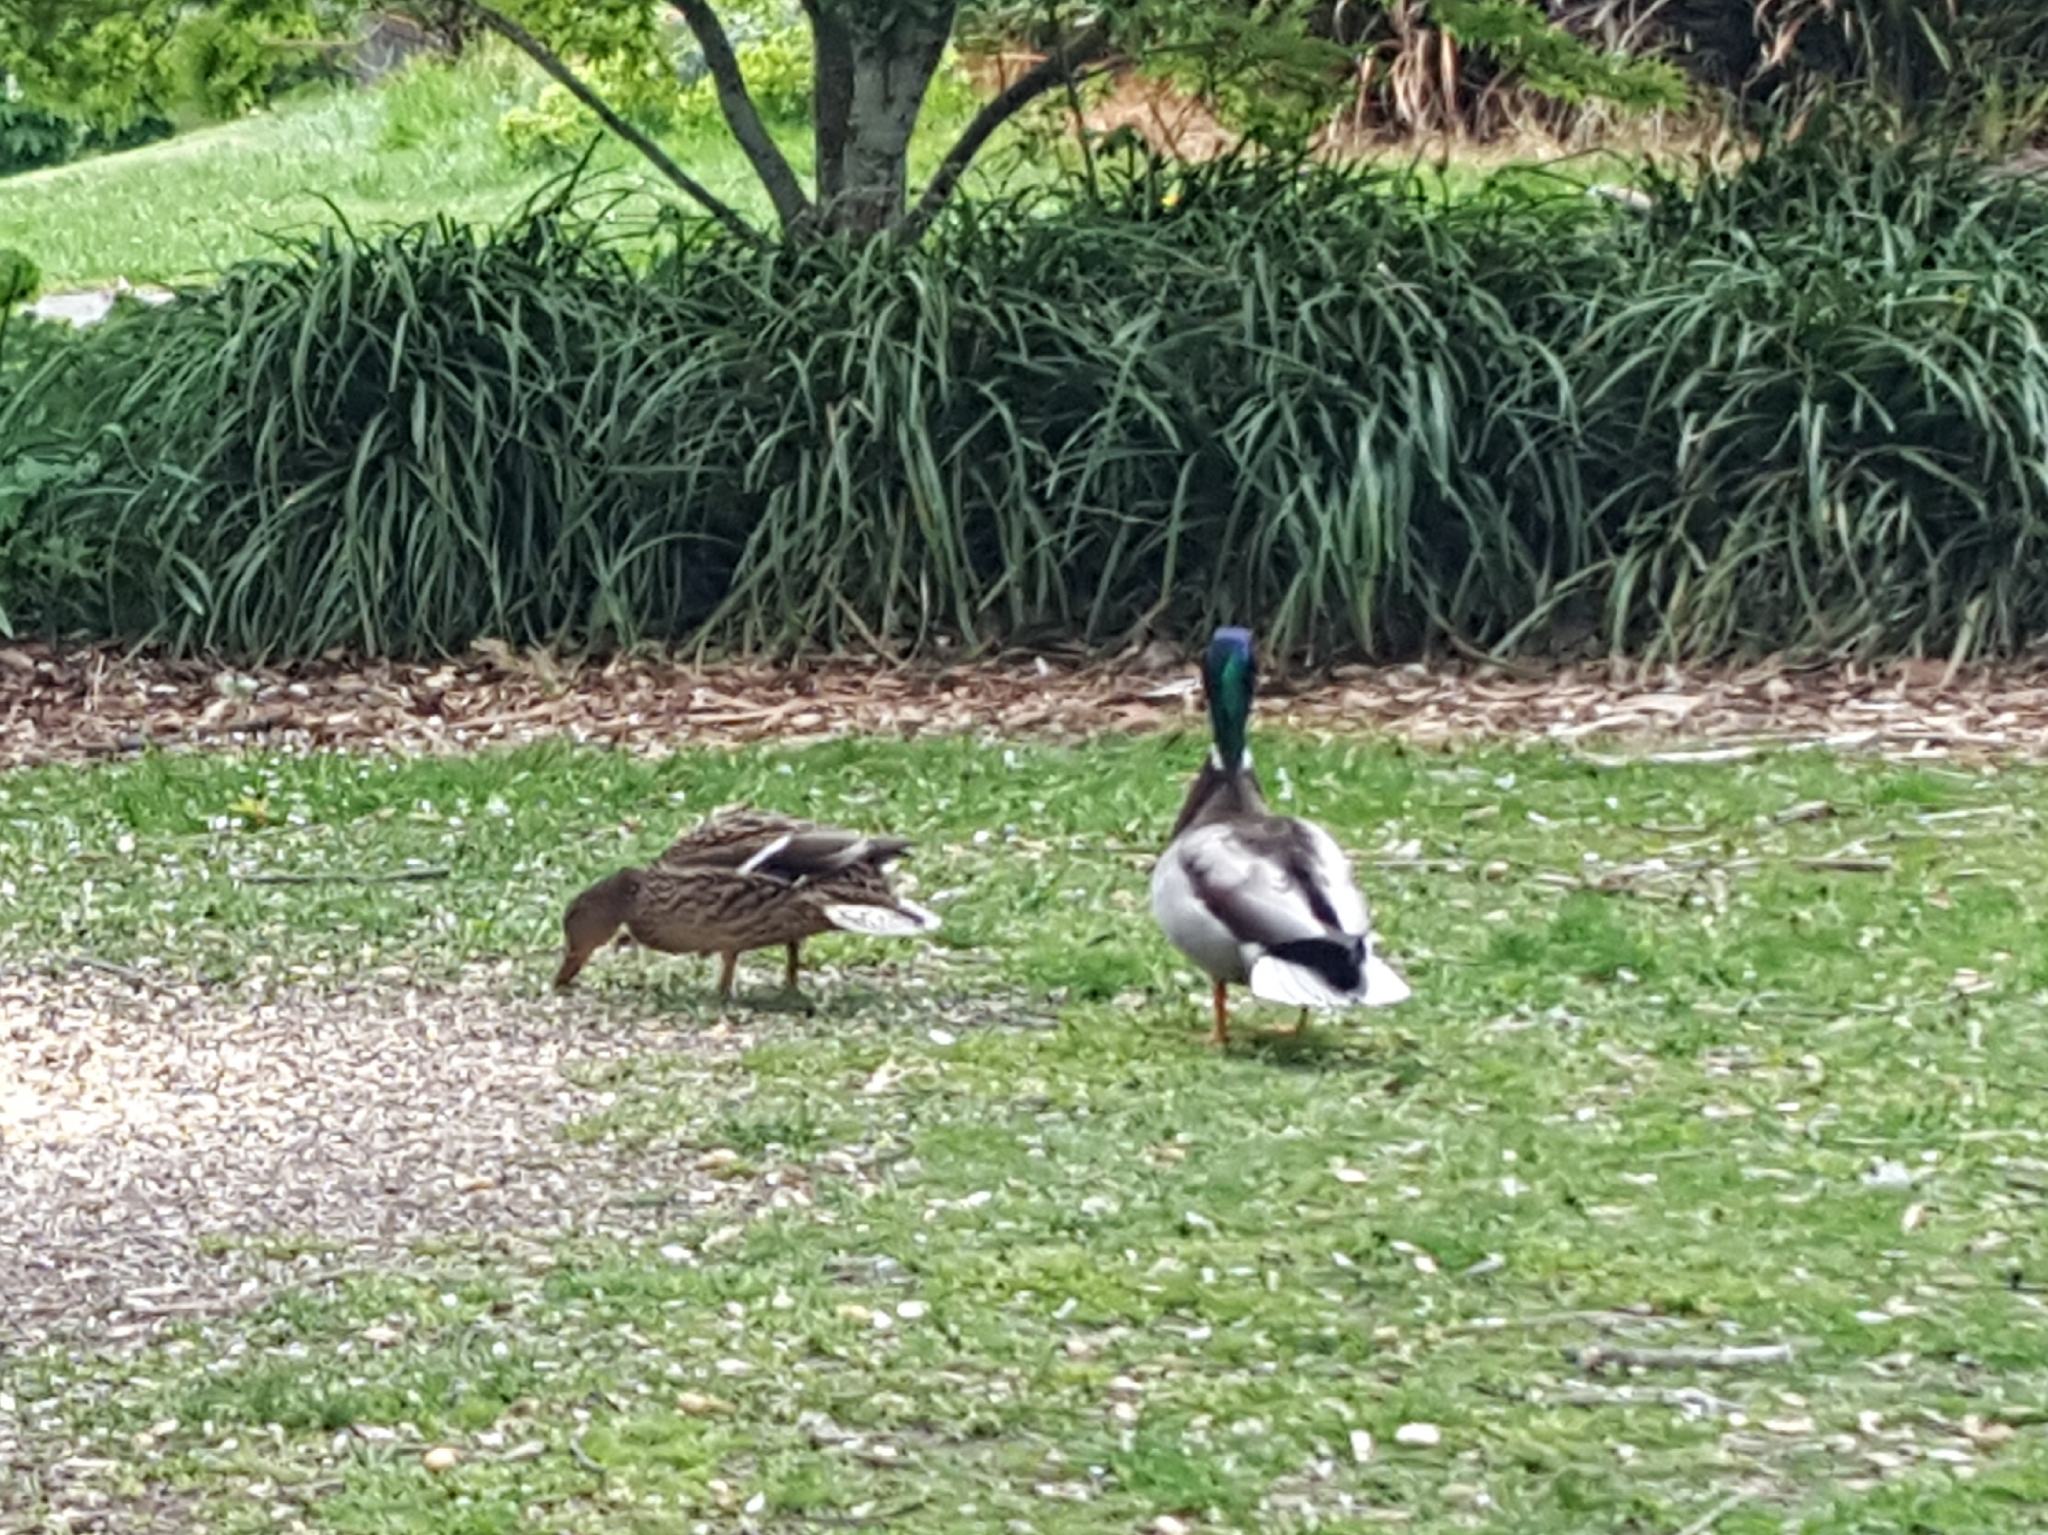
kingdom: Animalia
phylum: Chordata
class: Aves
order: Anseriformes
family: Anatidae
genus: Anas
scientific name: Anas platyrhynchos
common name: Mallard
